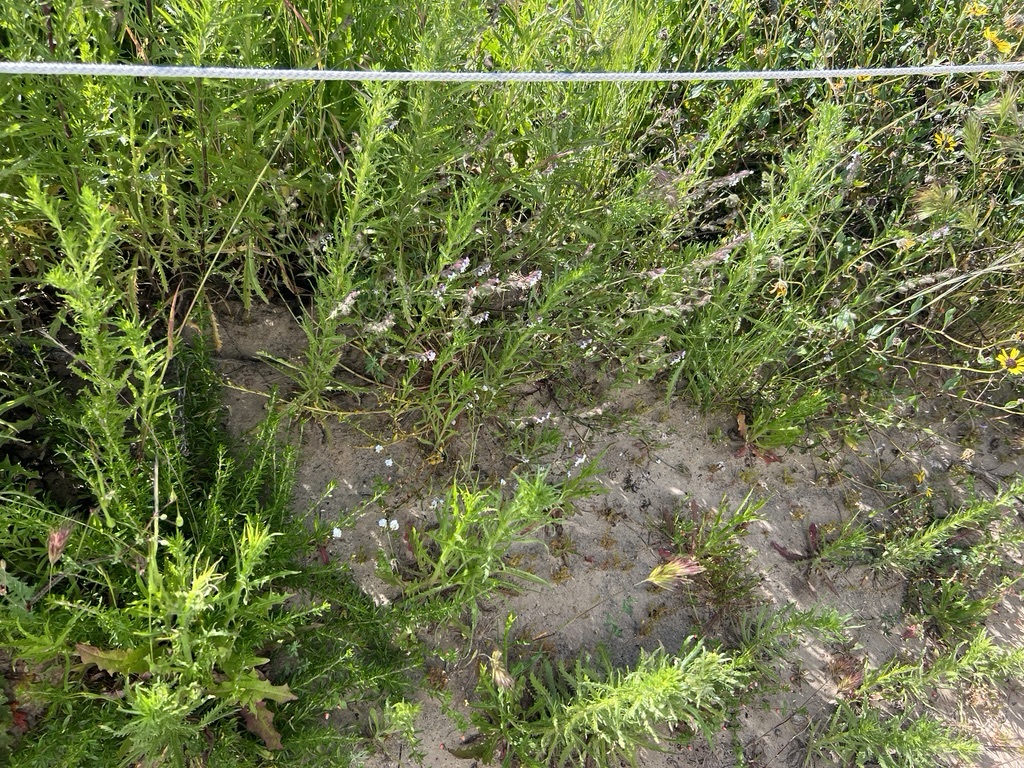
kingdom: Plantae
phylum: Tracheophyta
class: Magnoliopsida
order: Caryophyllales
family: Caryophyllaceae
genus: Silene
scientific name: Silene gallica
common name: Small-flowered catchfly
